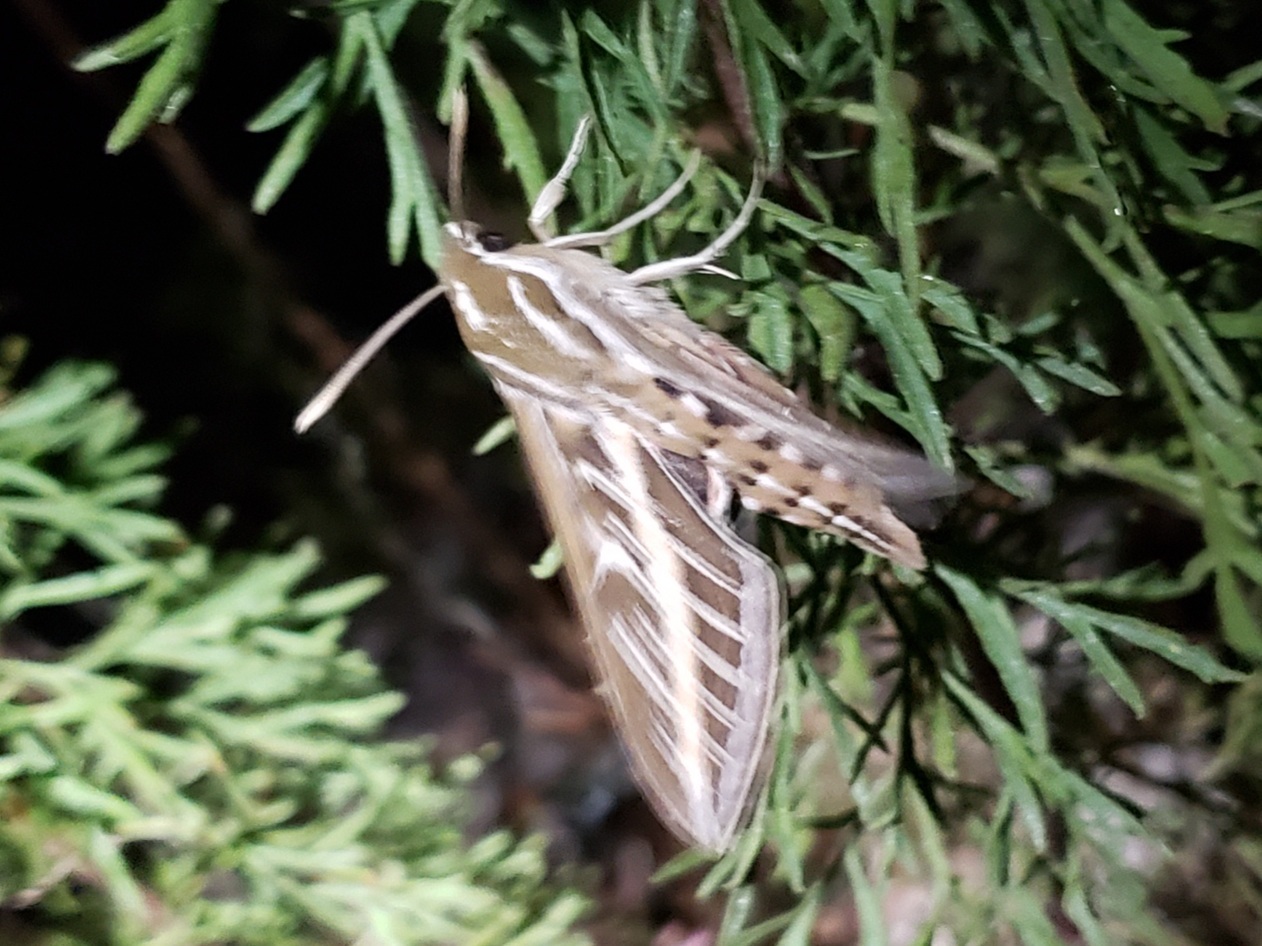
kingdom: Animalia
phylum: Arthropoda
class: Insecta
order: Lepidoptera
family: Sphingidae
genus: Hyles
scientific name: Hyles lineata
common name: White-lined sphinx
